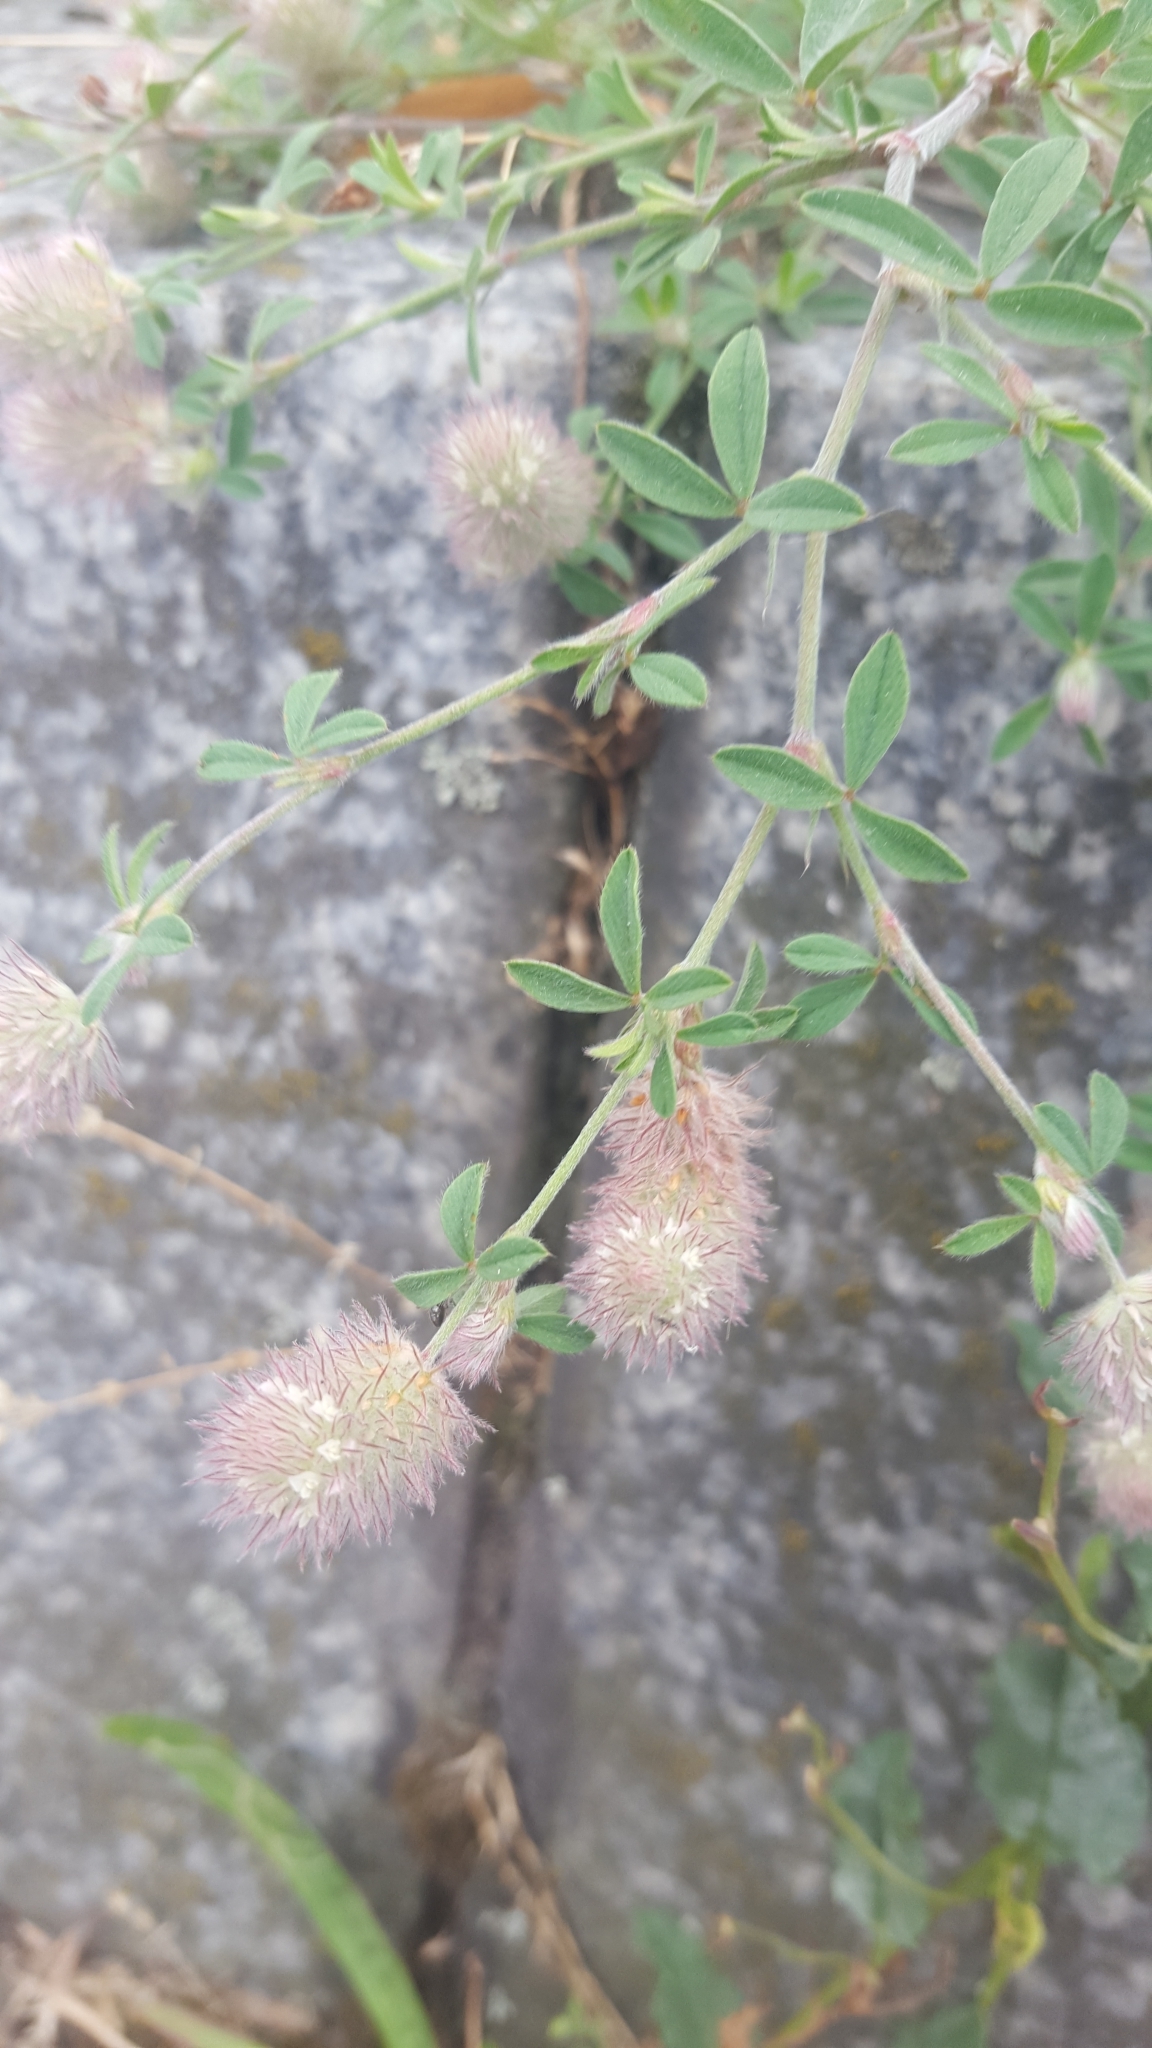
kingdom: Plantae
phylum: Tracheophyta
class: Magnoliopsida
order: Fabales
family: Fabaceae
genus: Trifolium
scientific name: Trifolium arvense
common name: Hare's-foot clover
